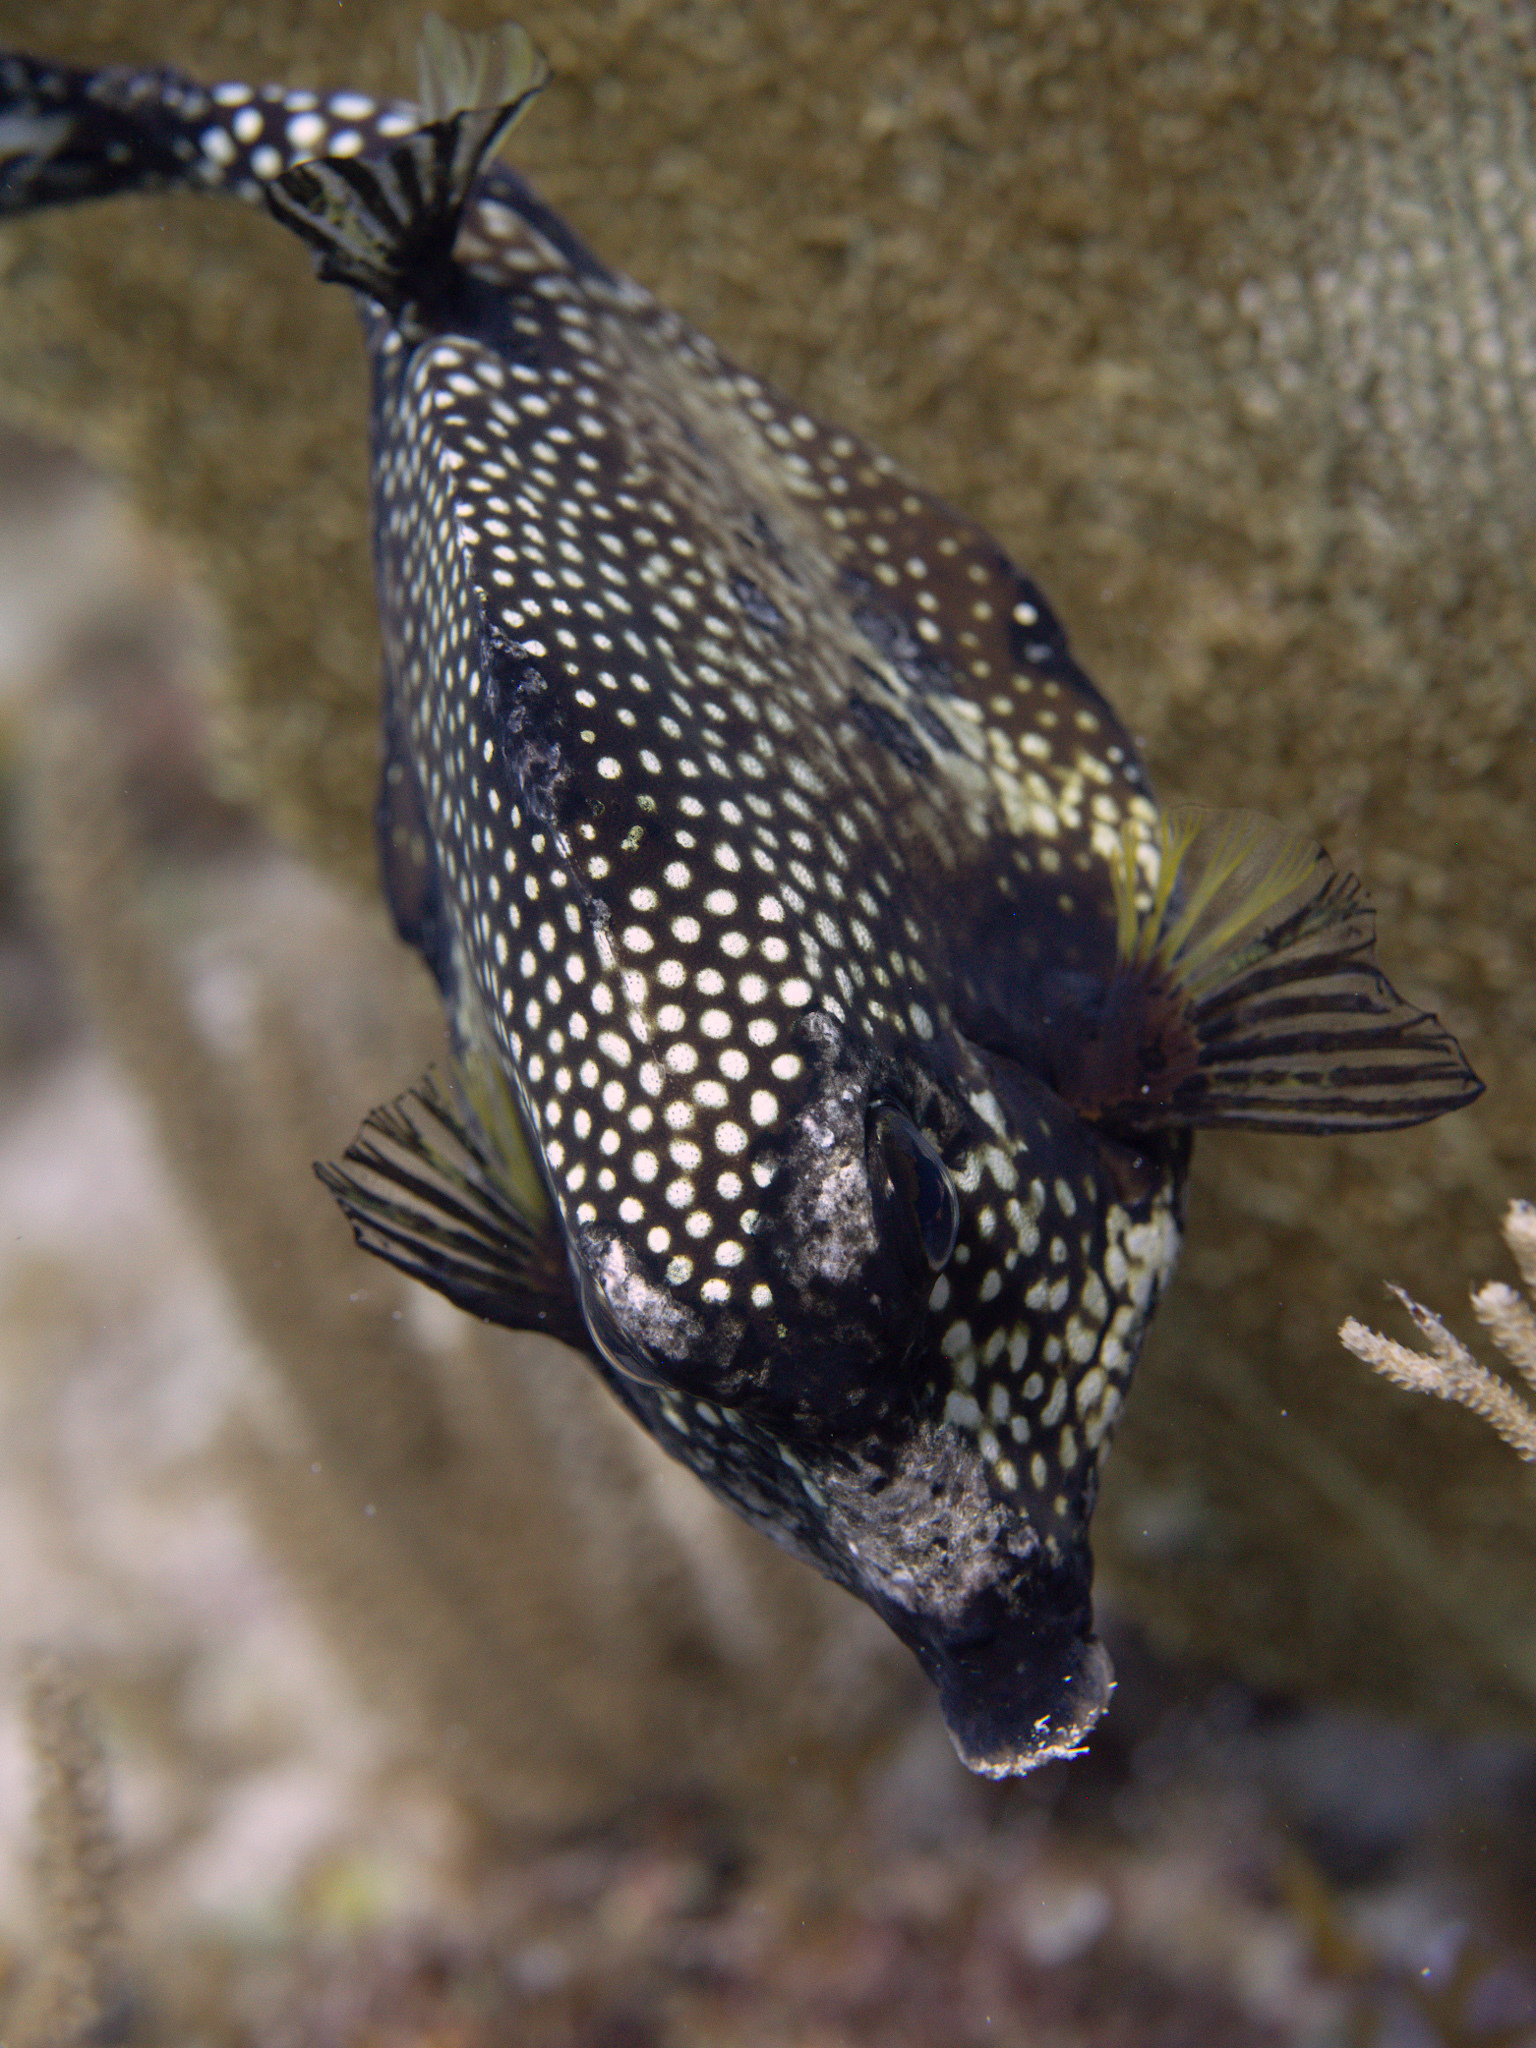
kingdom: Animalia
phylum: Chordata
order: Tetraodontiformes
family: Ostraciidae
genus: Lactophrys
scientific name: Lactophrys triqueter
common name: Smooth trunkfish
